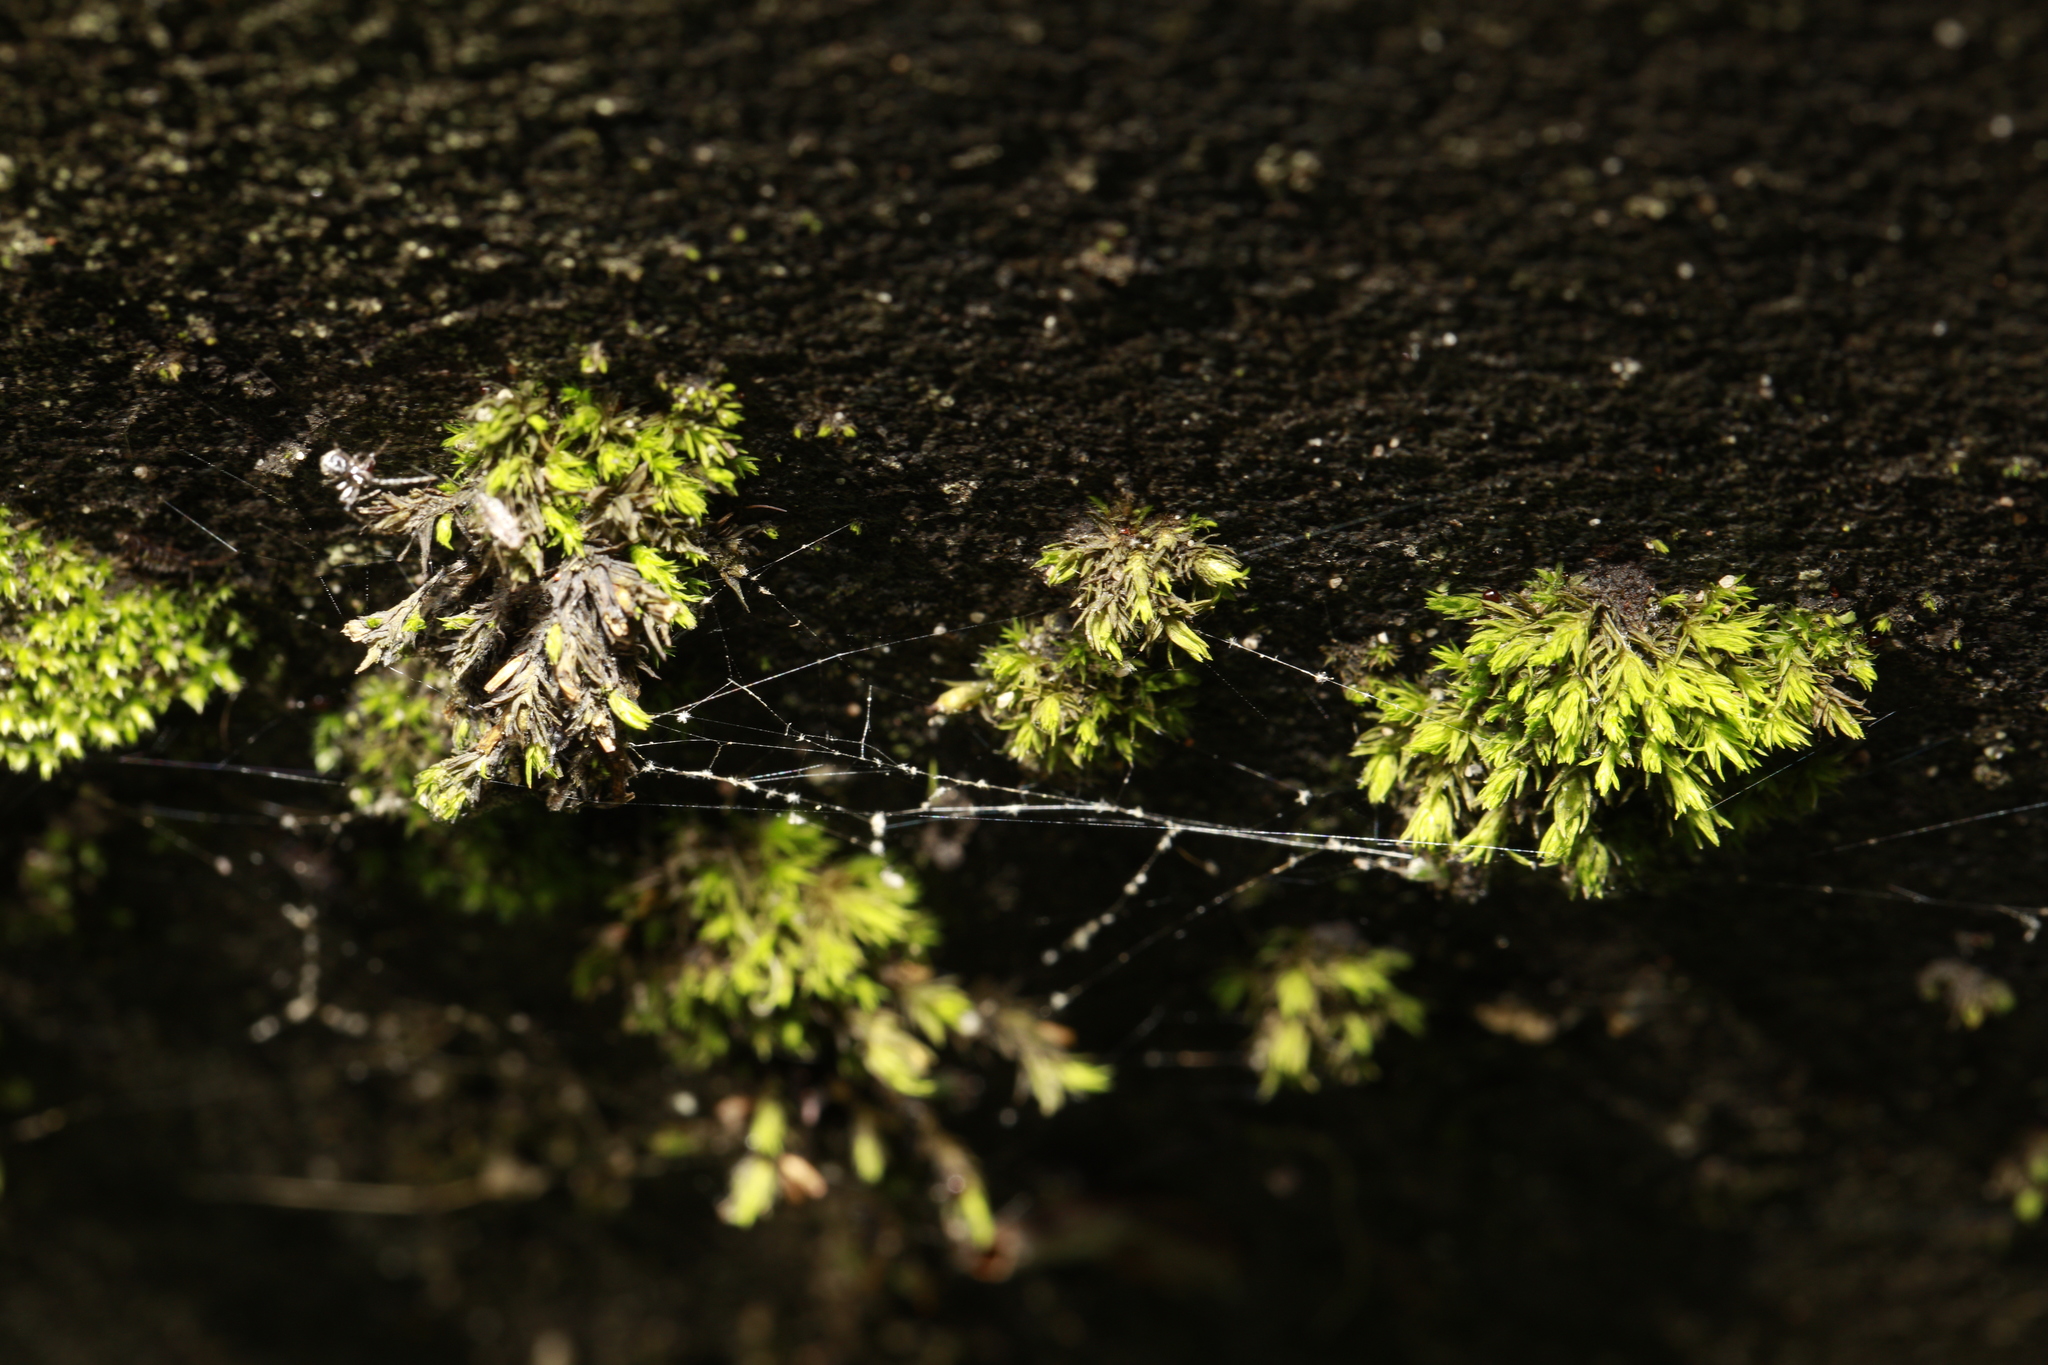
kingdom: Plantae
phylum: Bryophyta
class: Bryopsida
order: Orthotrichales
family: Orthotrichaceae
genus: Lewinskya
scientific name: Lewinskya affinis
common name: Wood bristle-moss
